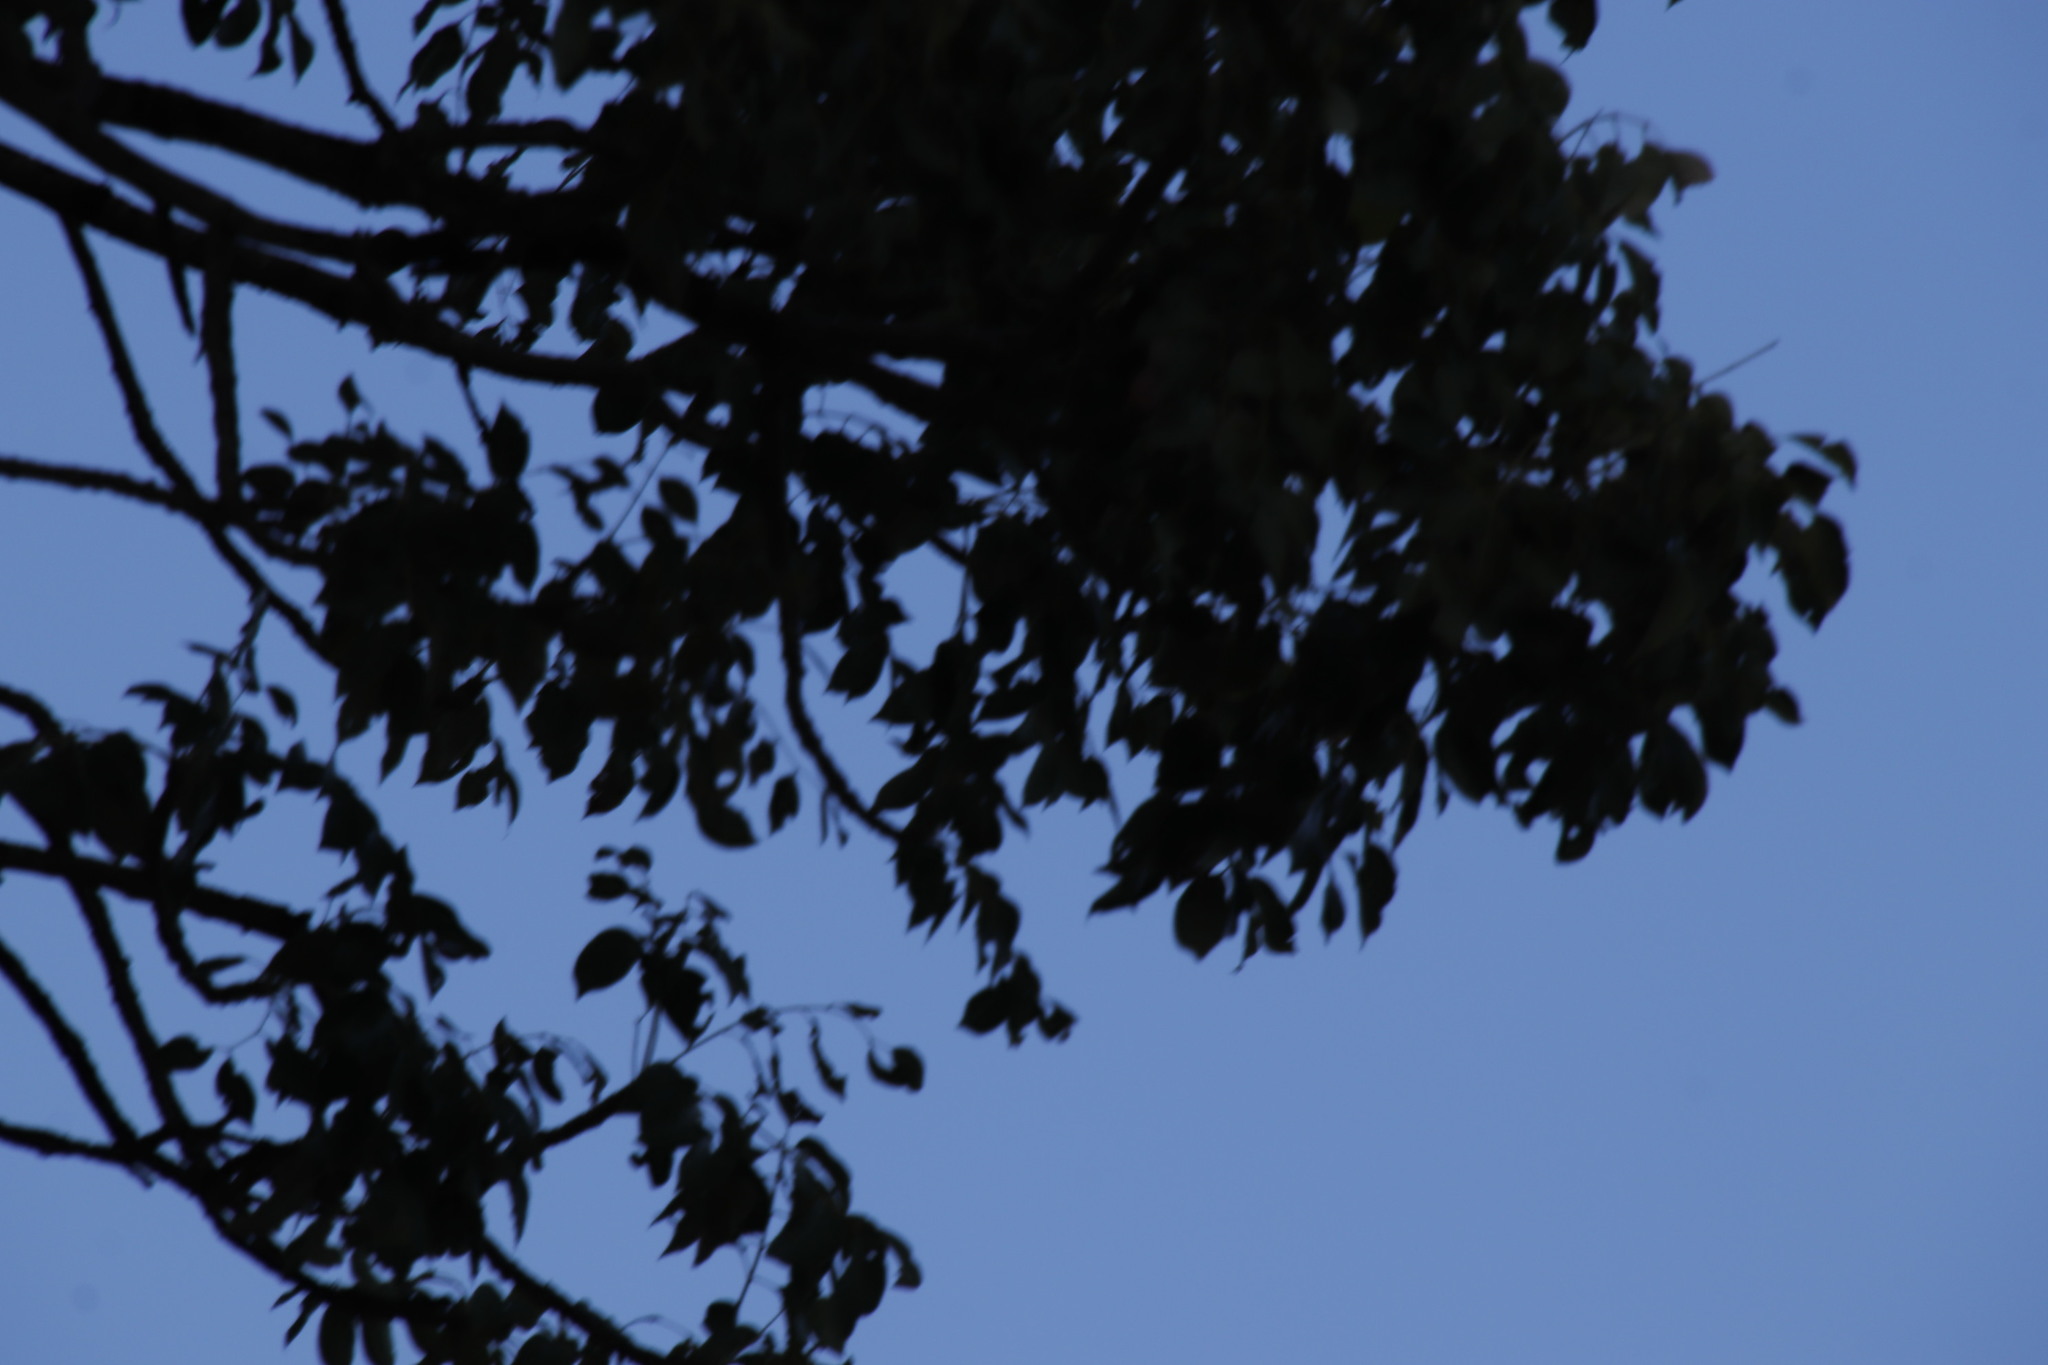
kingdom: Plantae
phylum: Tracheophyta
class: Magnoliopsida
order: Sapindales
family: Anacardiaceae
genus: Sclerocarya
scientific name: Sclerocarya birrea
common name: Marula
